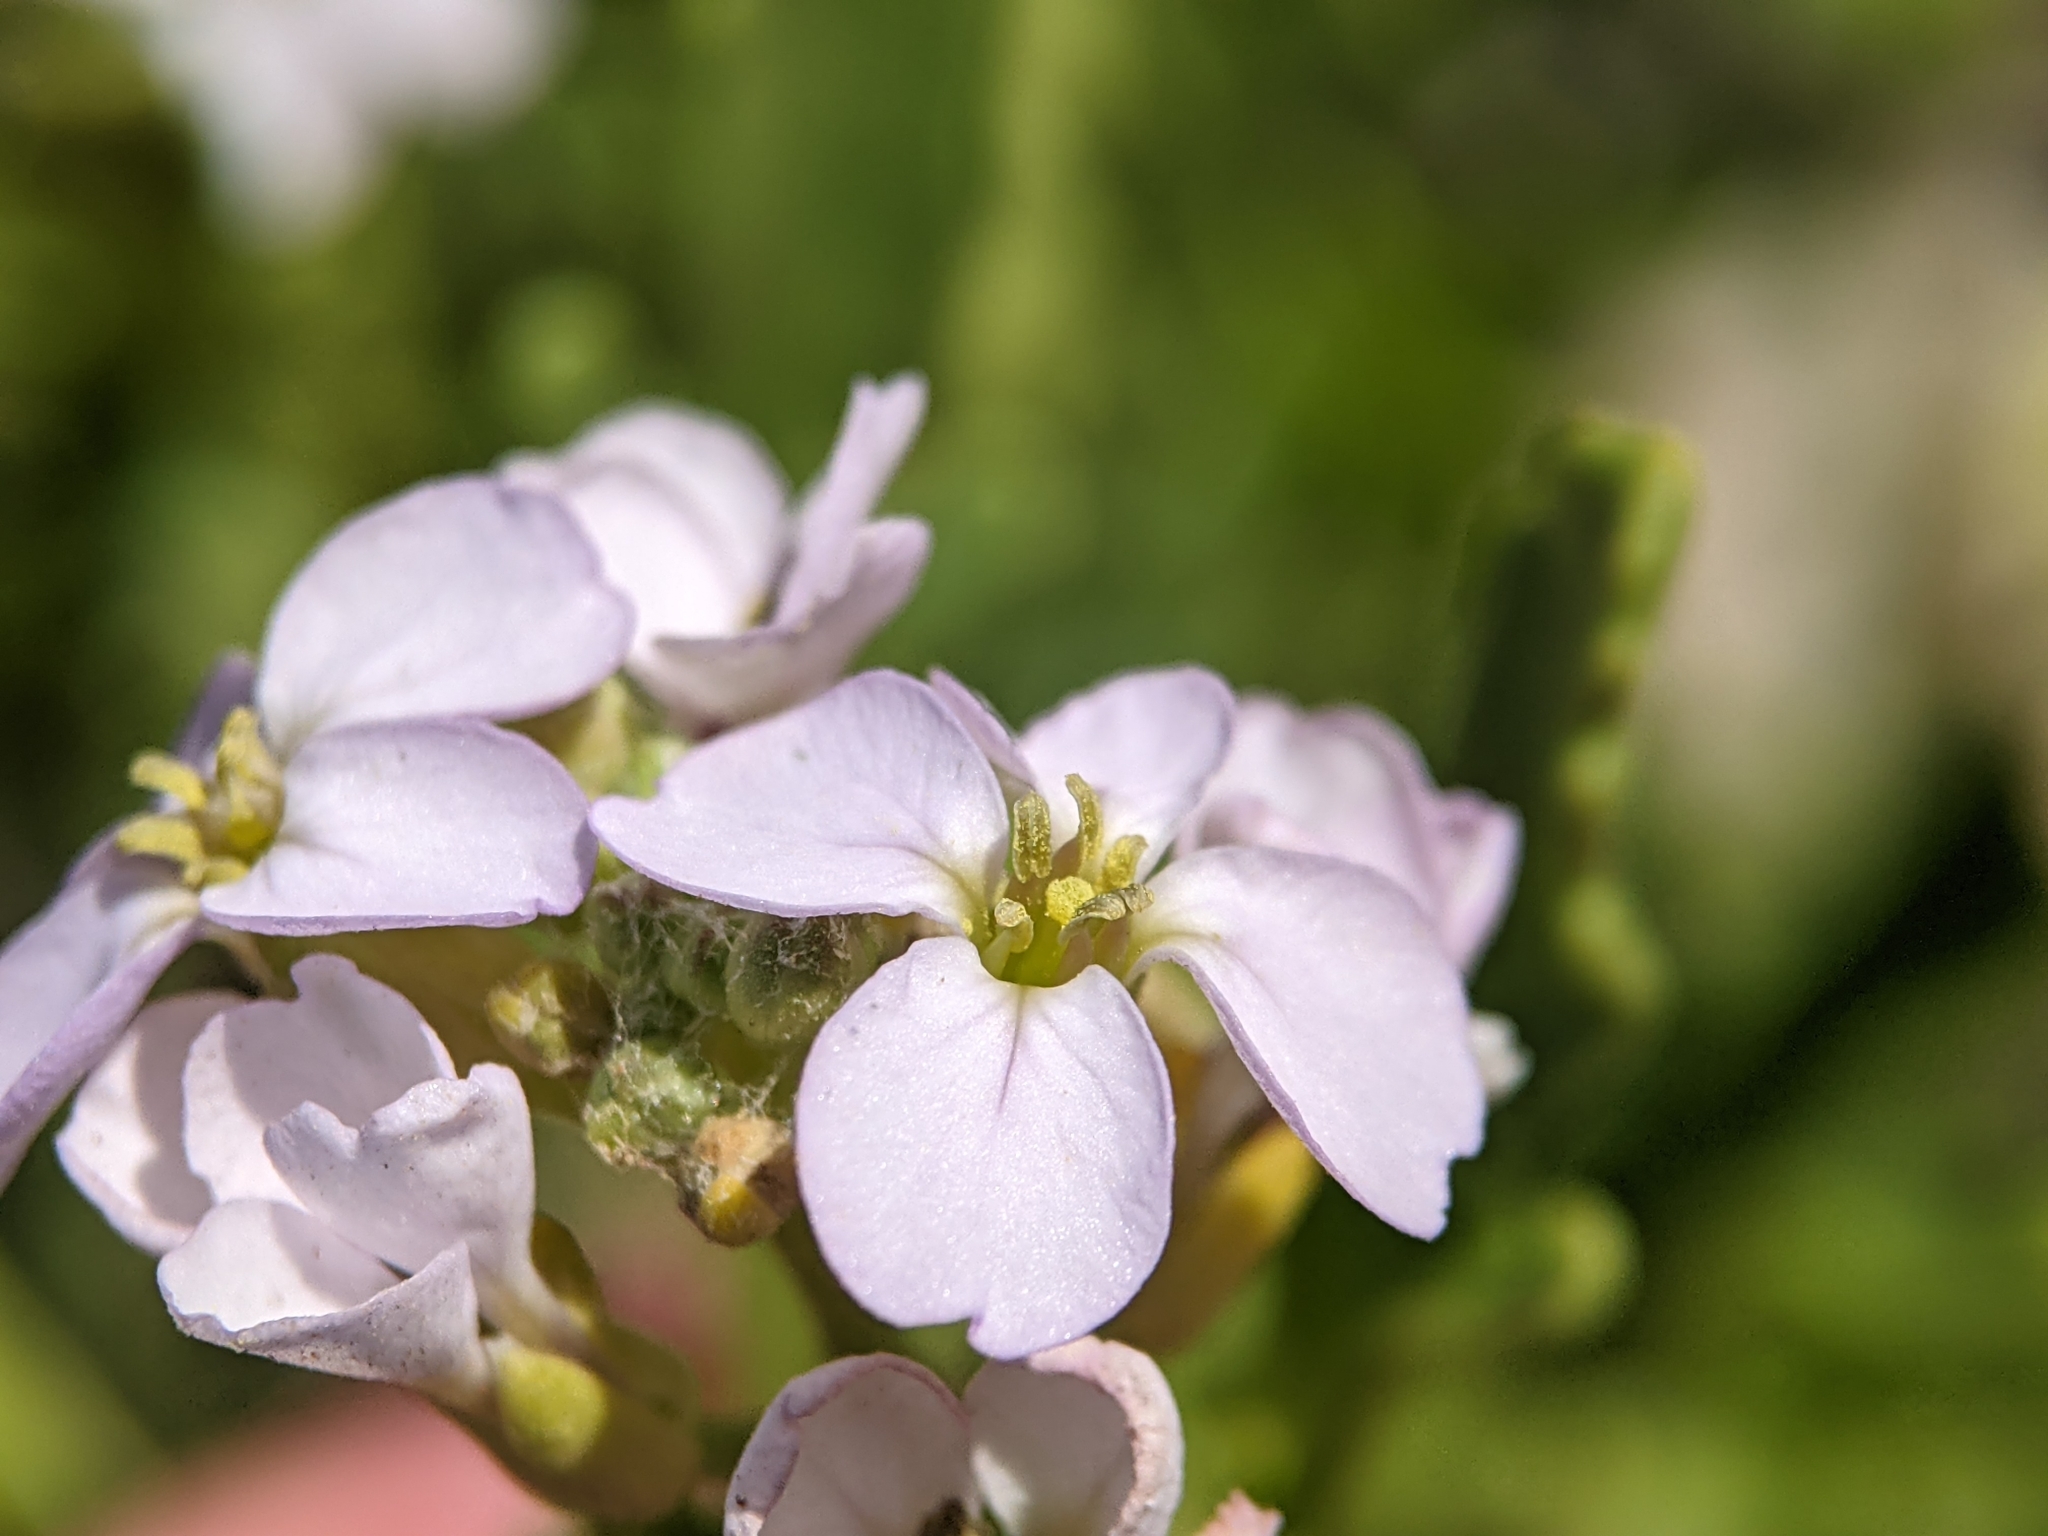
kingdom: Plantae
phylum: Tracheophyta
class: Magnoliopsida
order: Brassicales
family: Brassicaceae
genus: Cakile
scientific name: Cakile maritima
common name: Sea rocket
